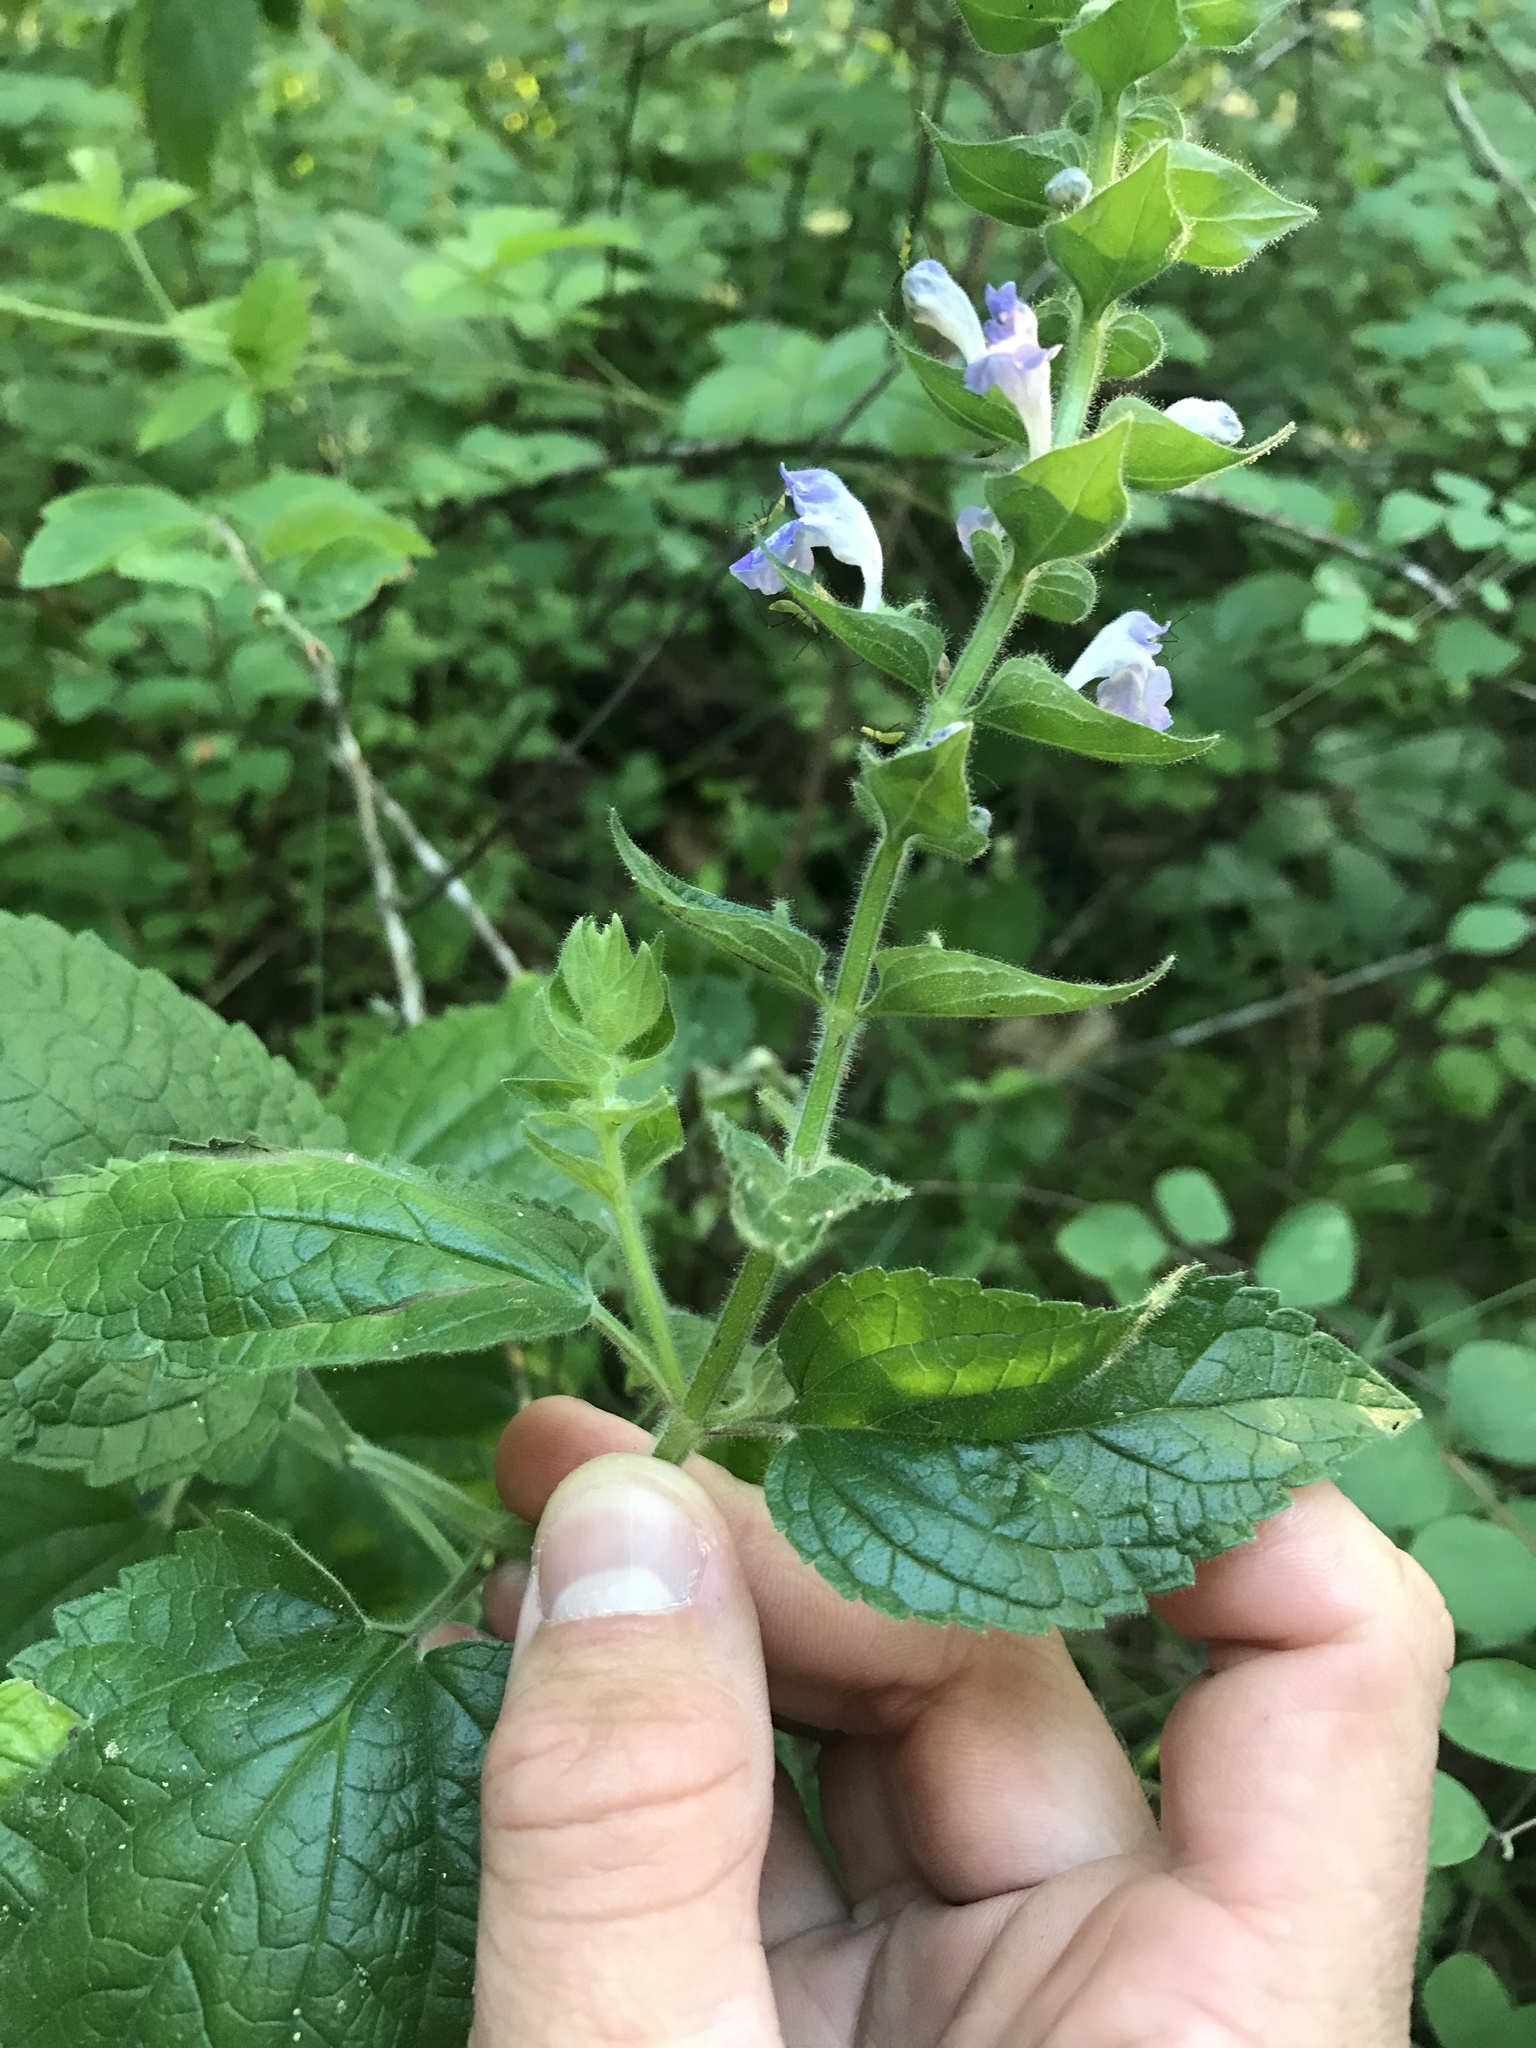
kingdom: Plantae
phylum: Tracheophyta
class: Magnoliopsida
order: Lamiales
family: Lamiaceae
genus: Scutellaria
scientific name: Scutellaria ovata
